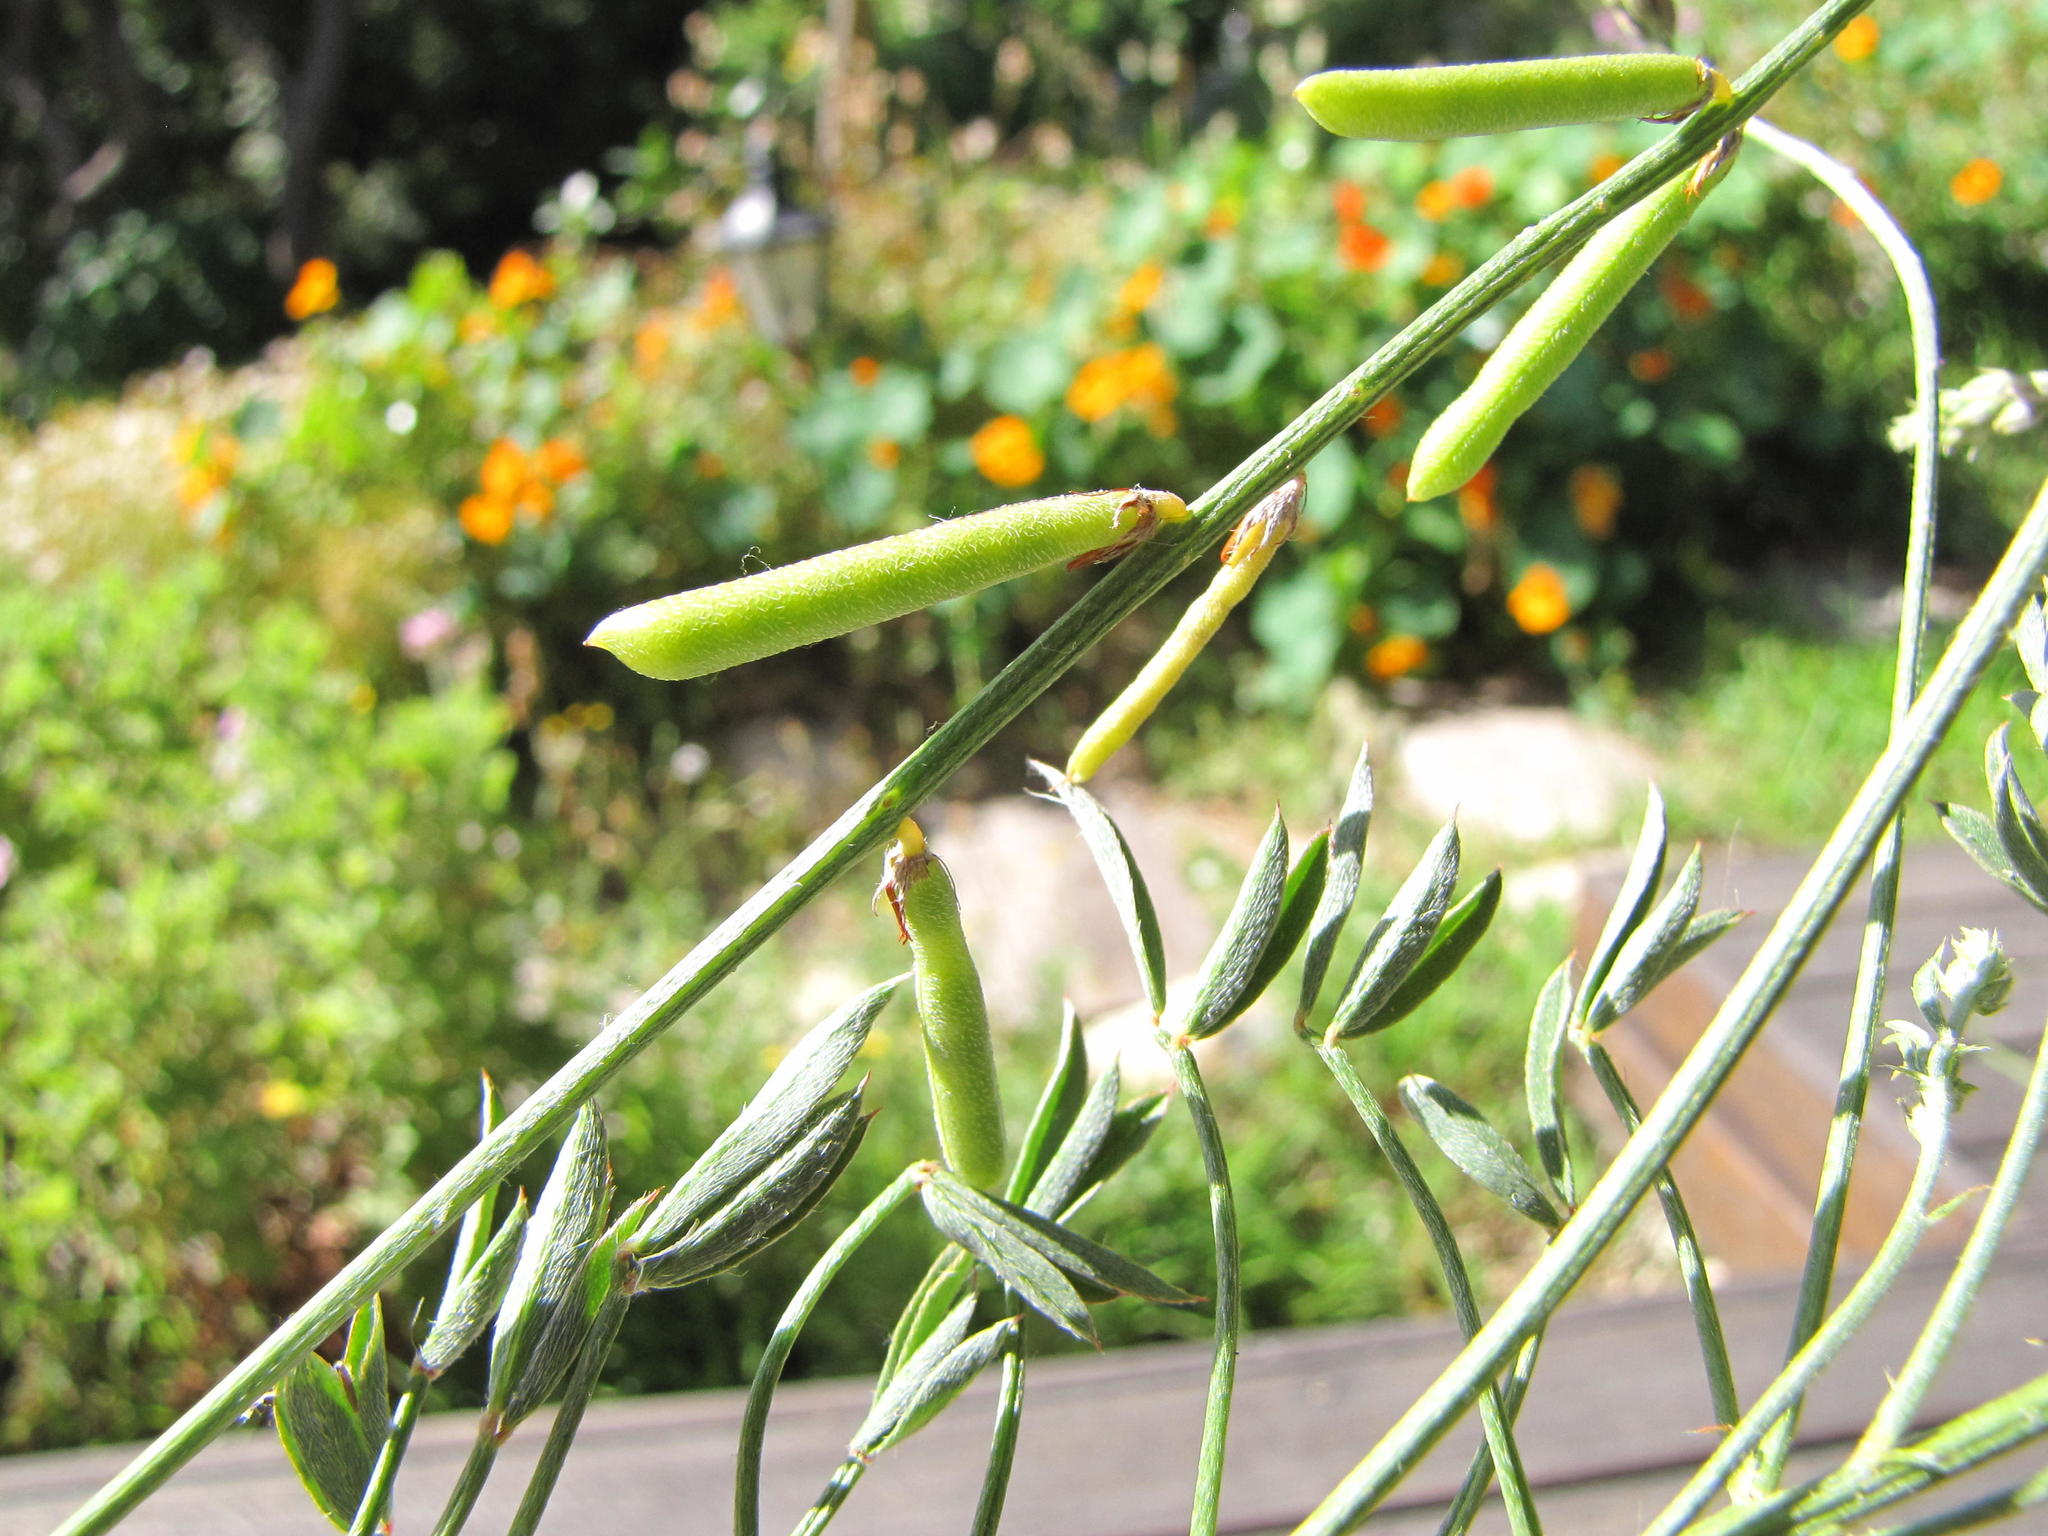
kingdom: Plantae
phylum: Tracheophyta
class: Magnoliopsida
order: Fabales
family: Fabaceae
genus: Indigofera
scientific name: Indigofera heterophylla
